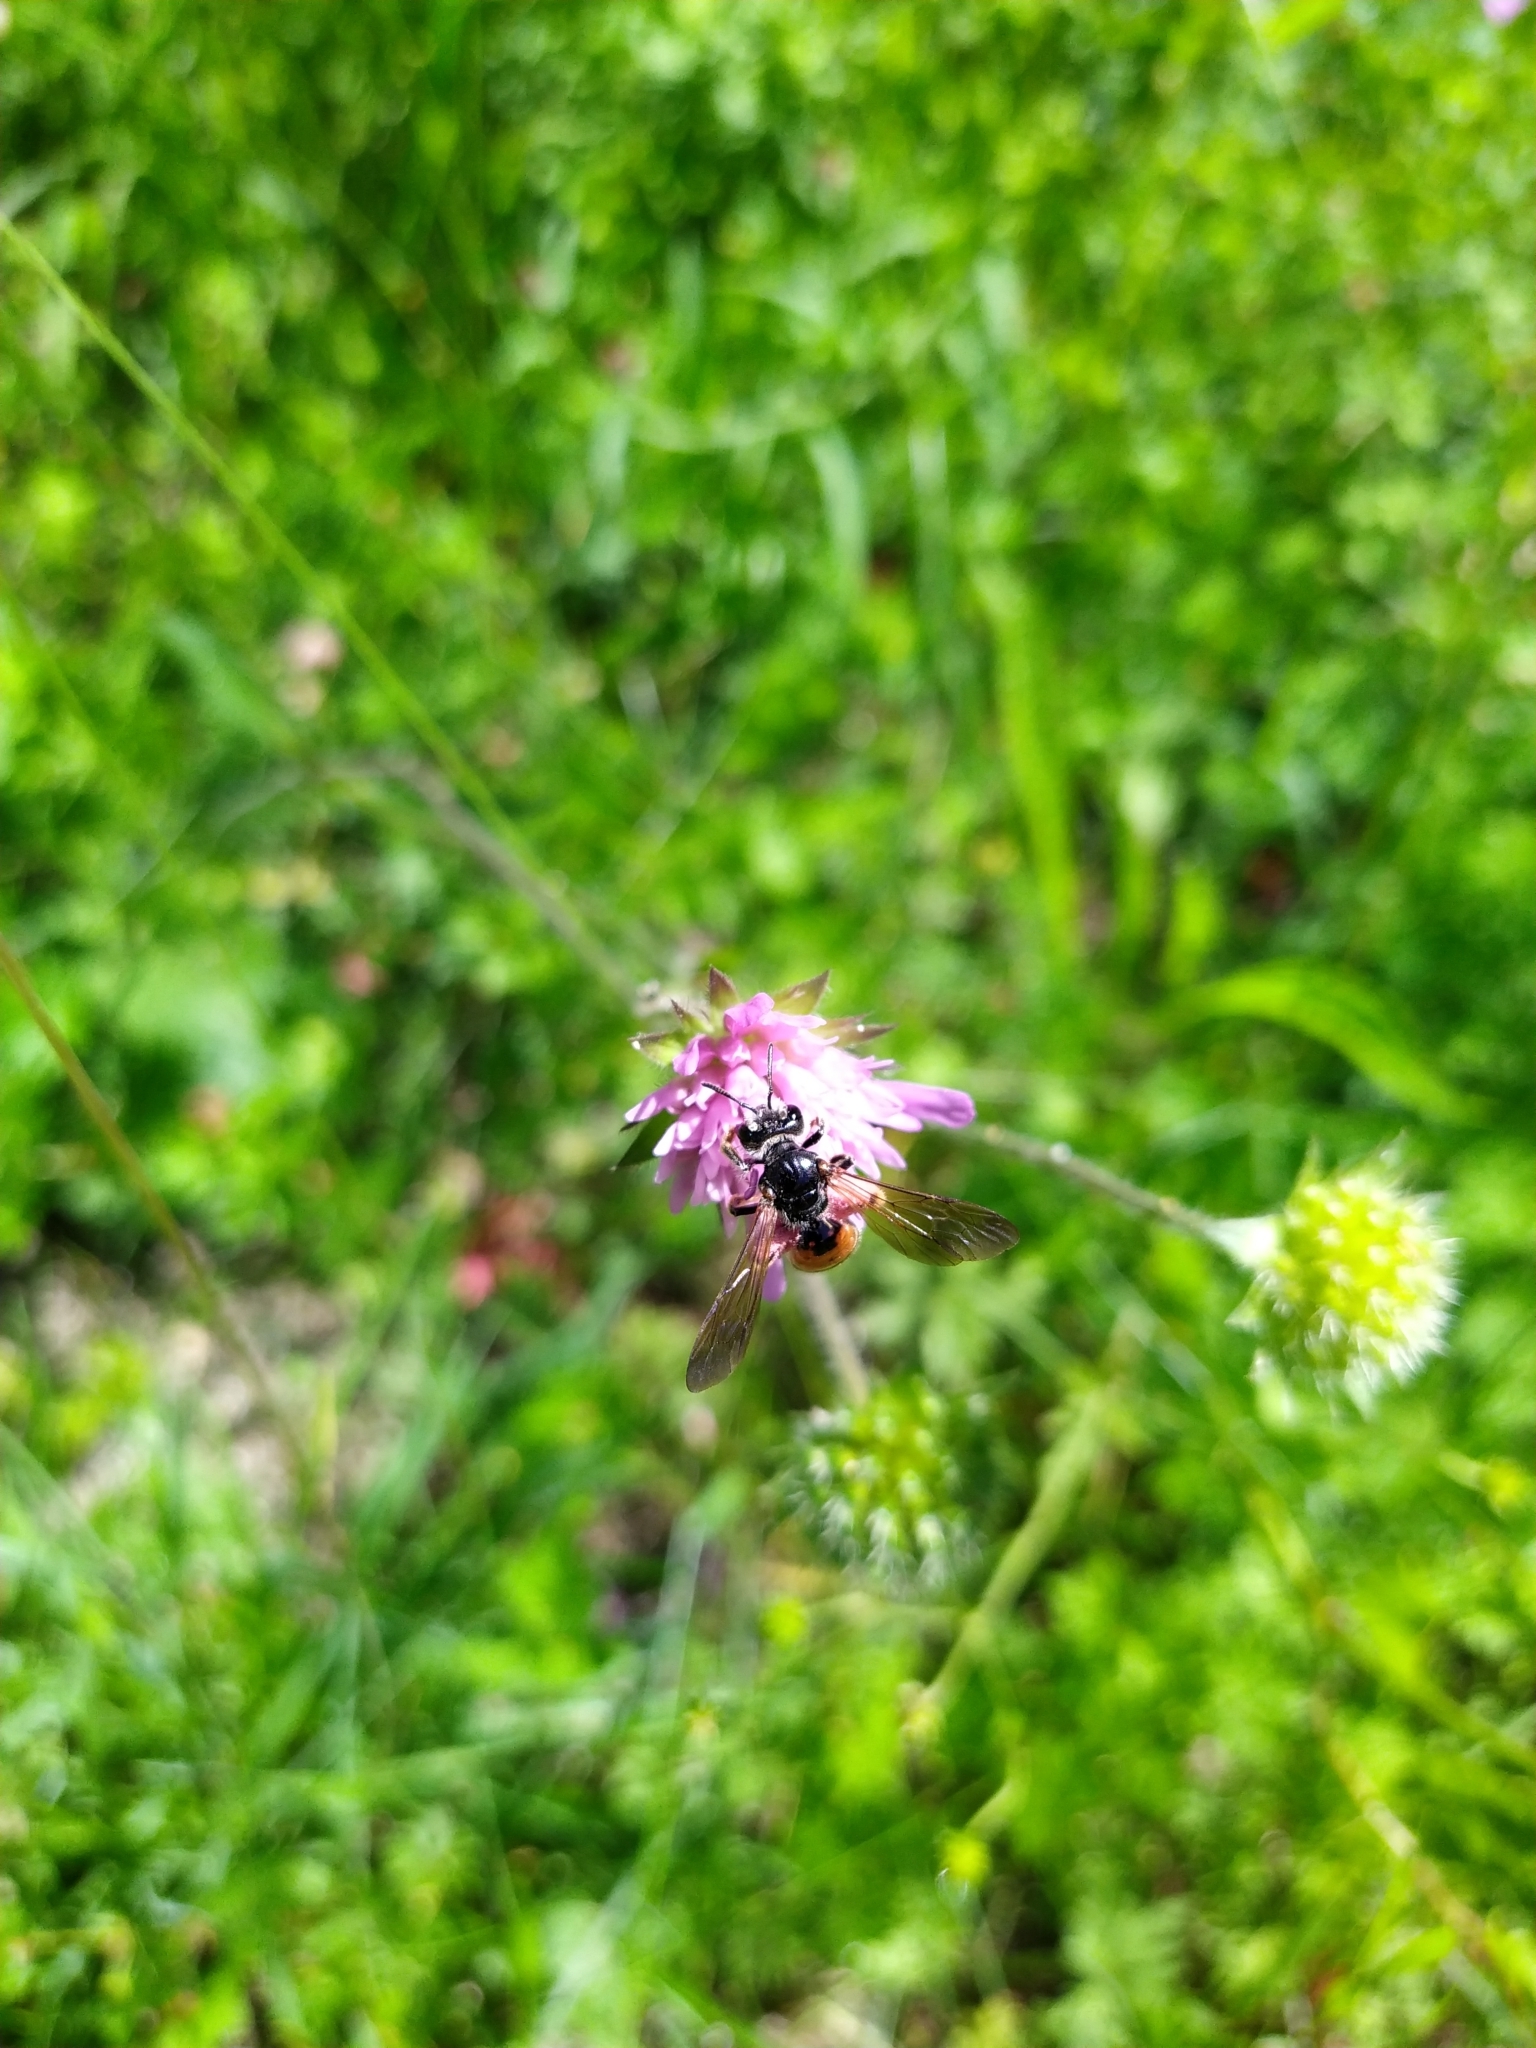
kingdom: Animalia
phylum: Arthropoda
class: Insecta
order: Hymenoptera
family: Andrenidae
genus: Andrena
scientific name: Andrena hattorfiana
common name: Large scabious mining bee
